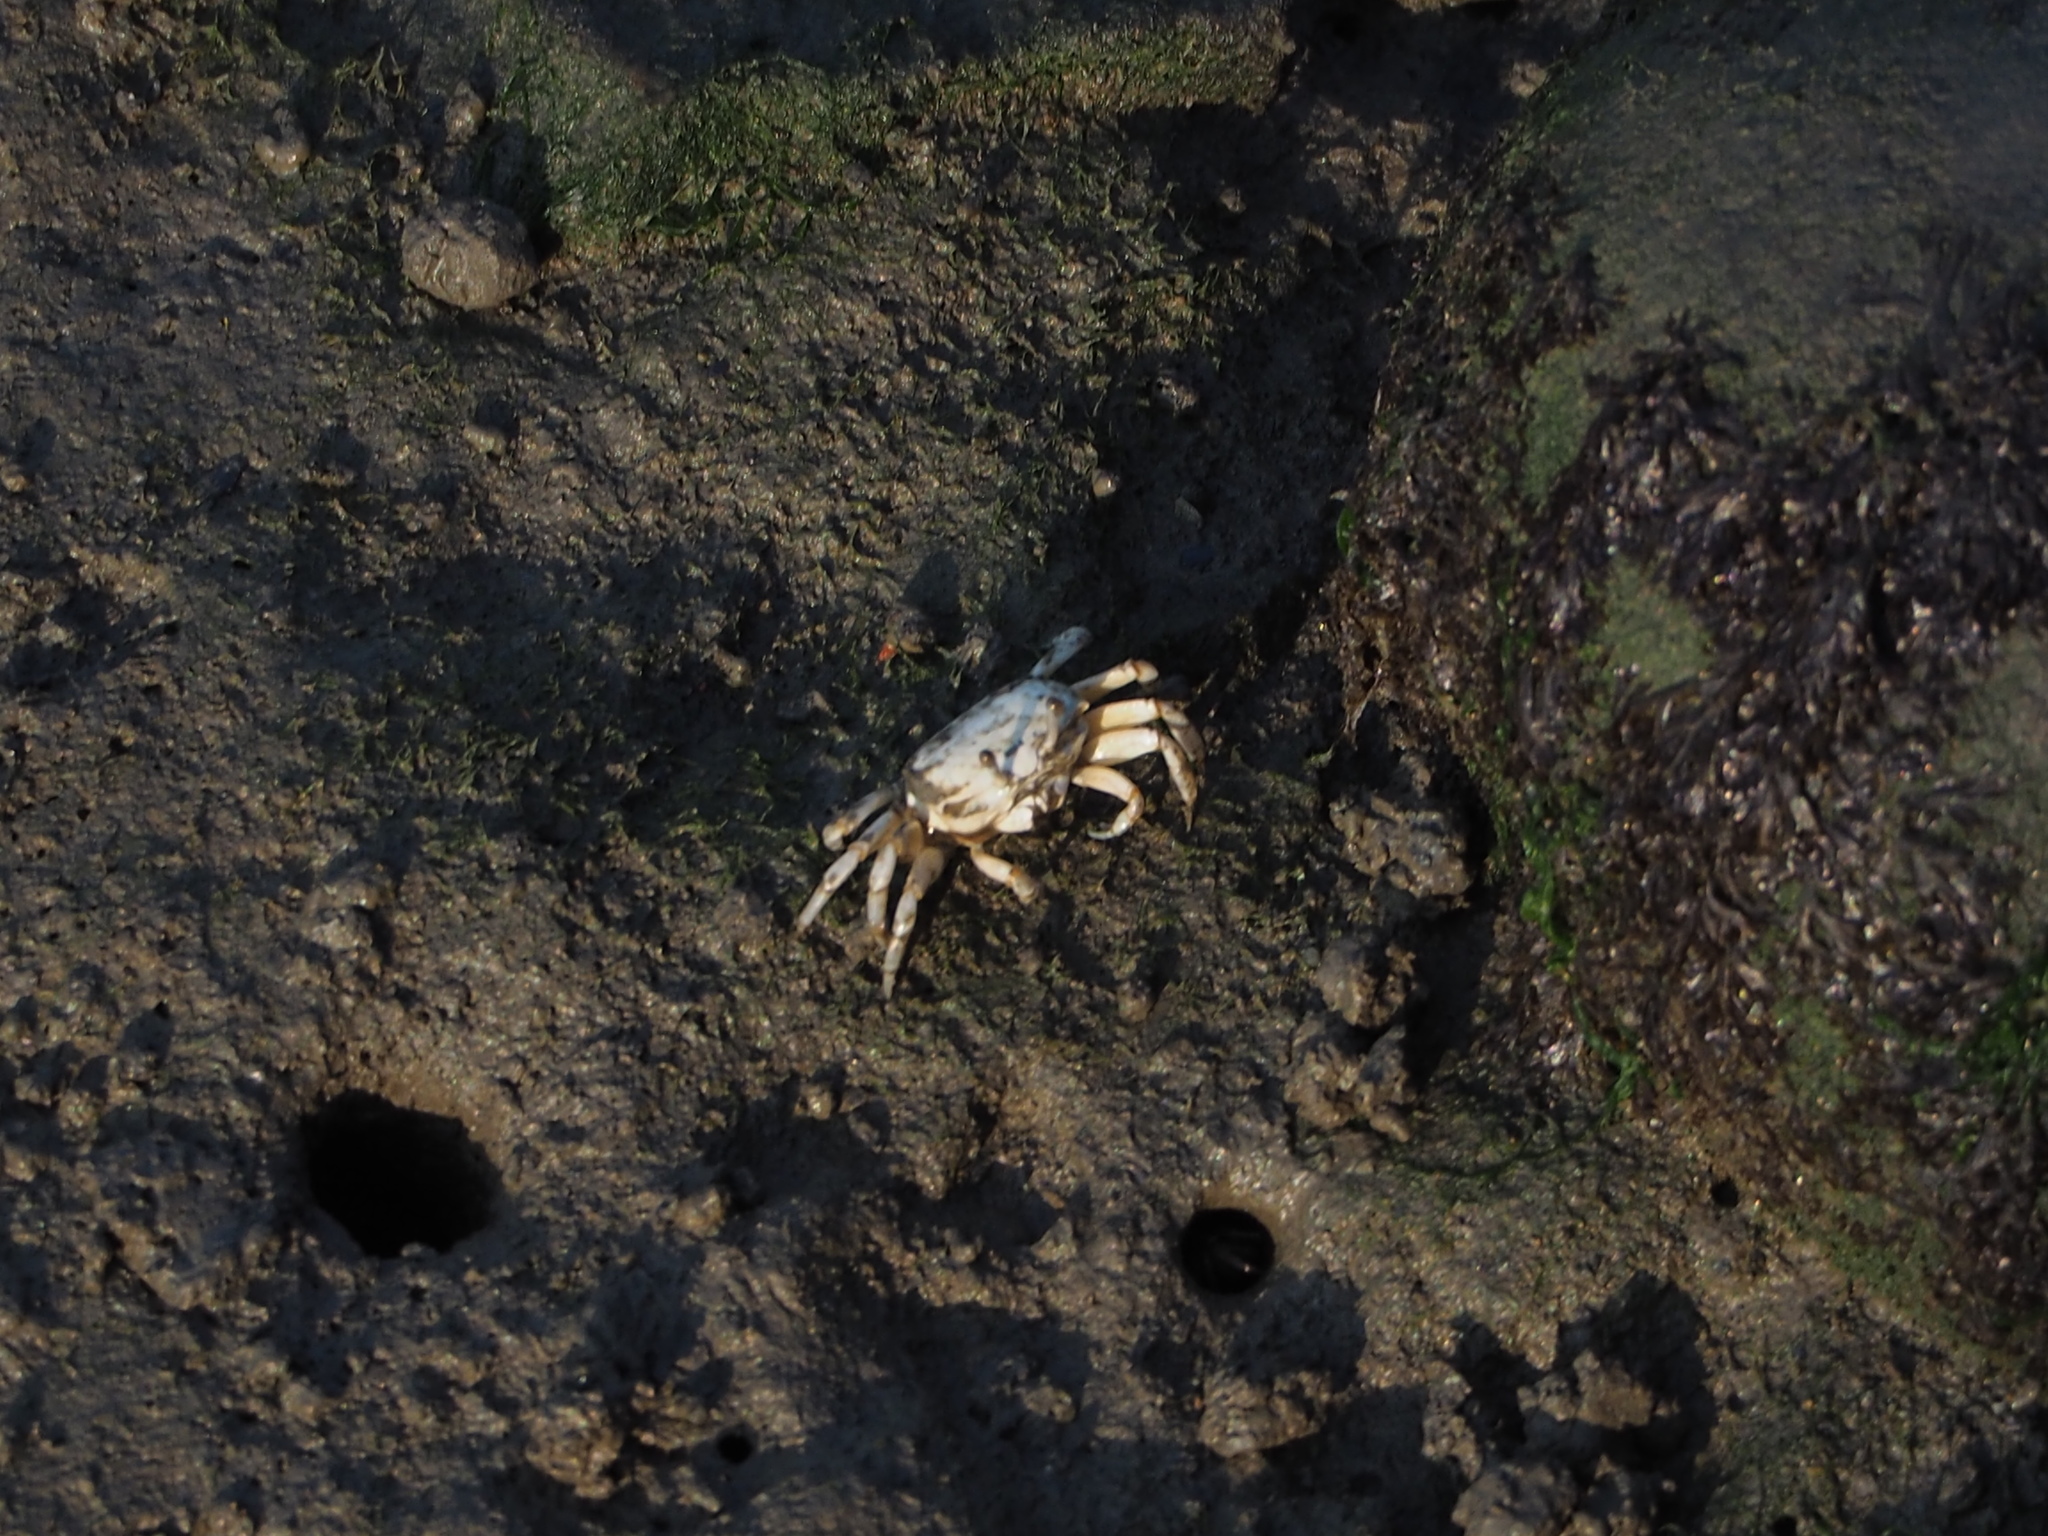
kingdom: Animalia
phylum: Arthropoda
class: Malacostraca
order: Decapoda
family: Ocypodidae
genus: Austruca
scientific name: Austruca lactea
